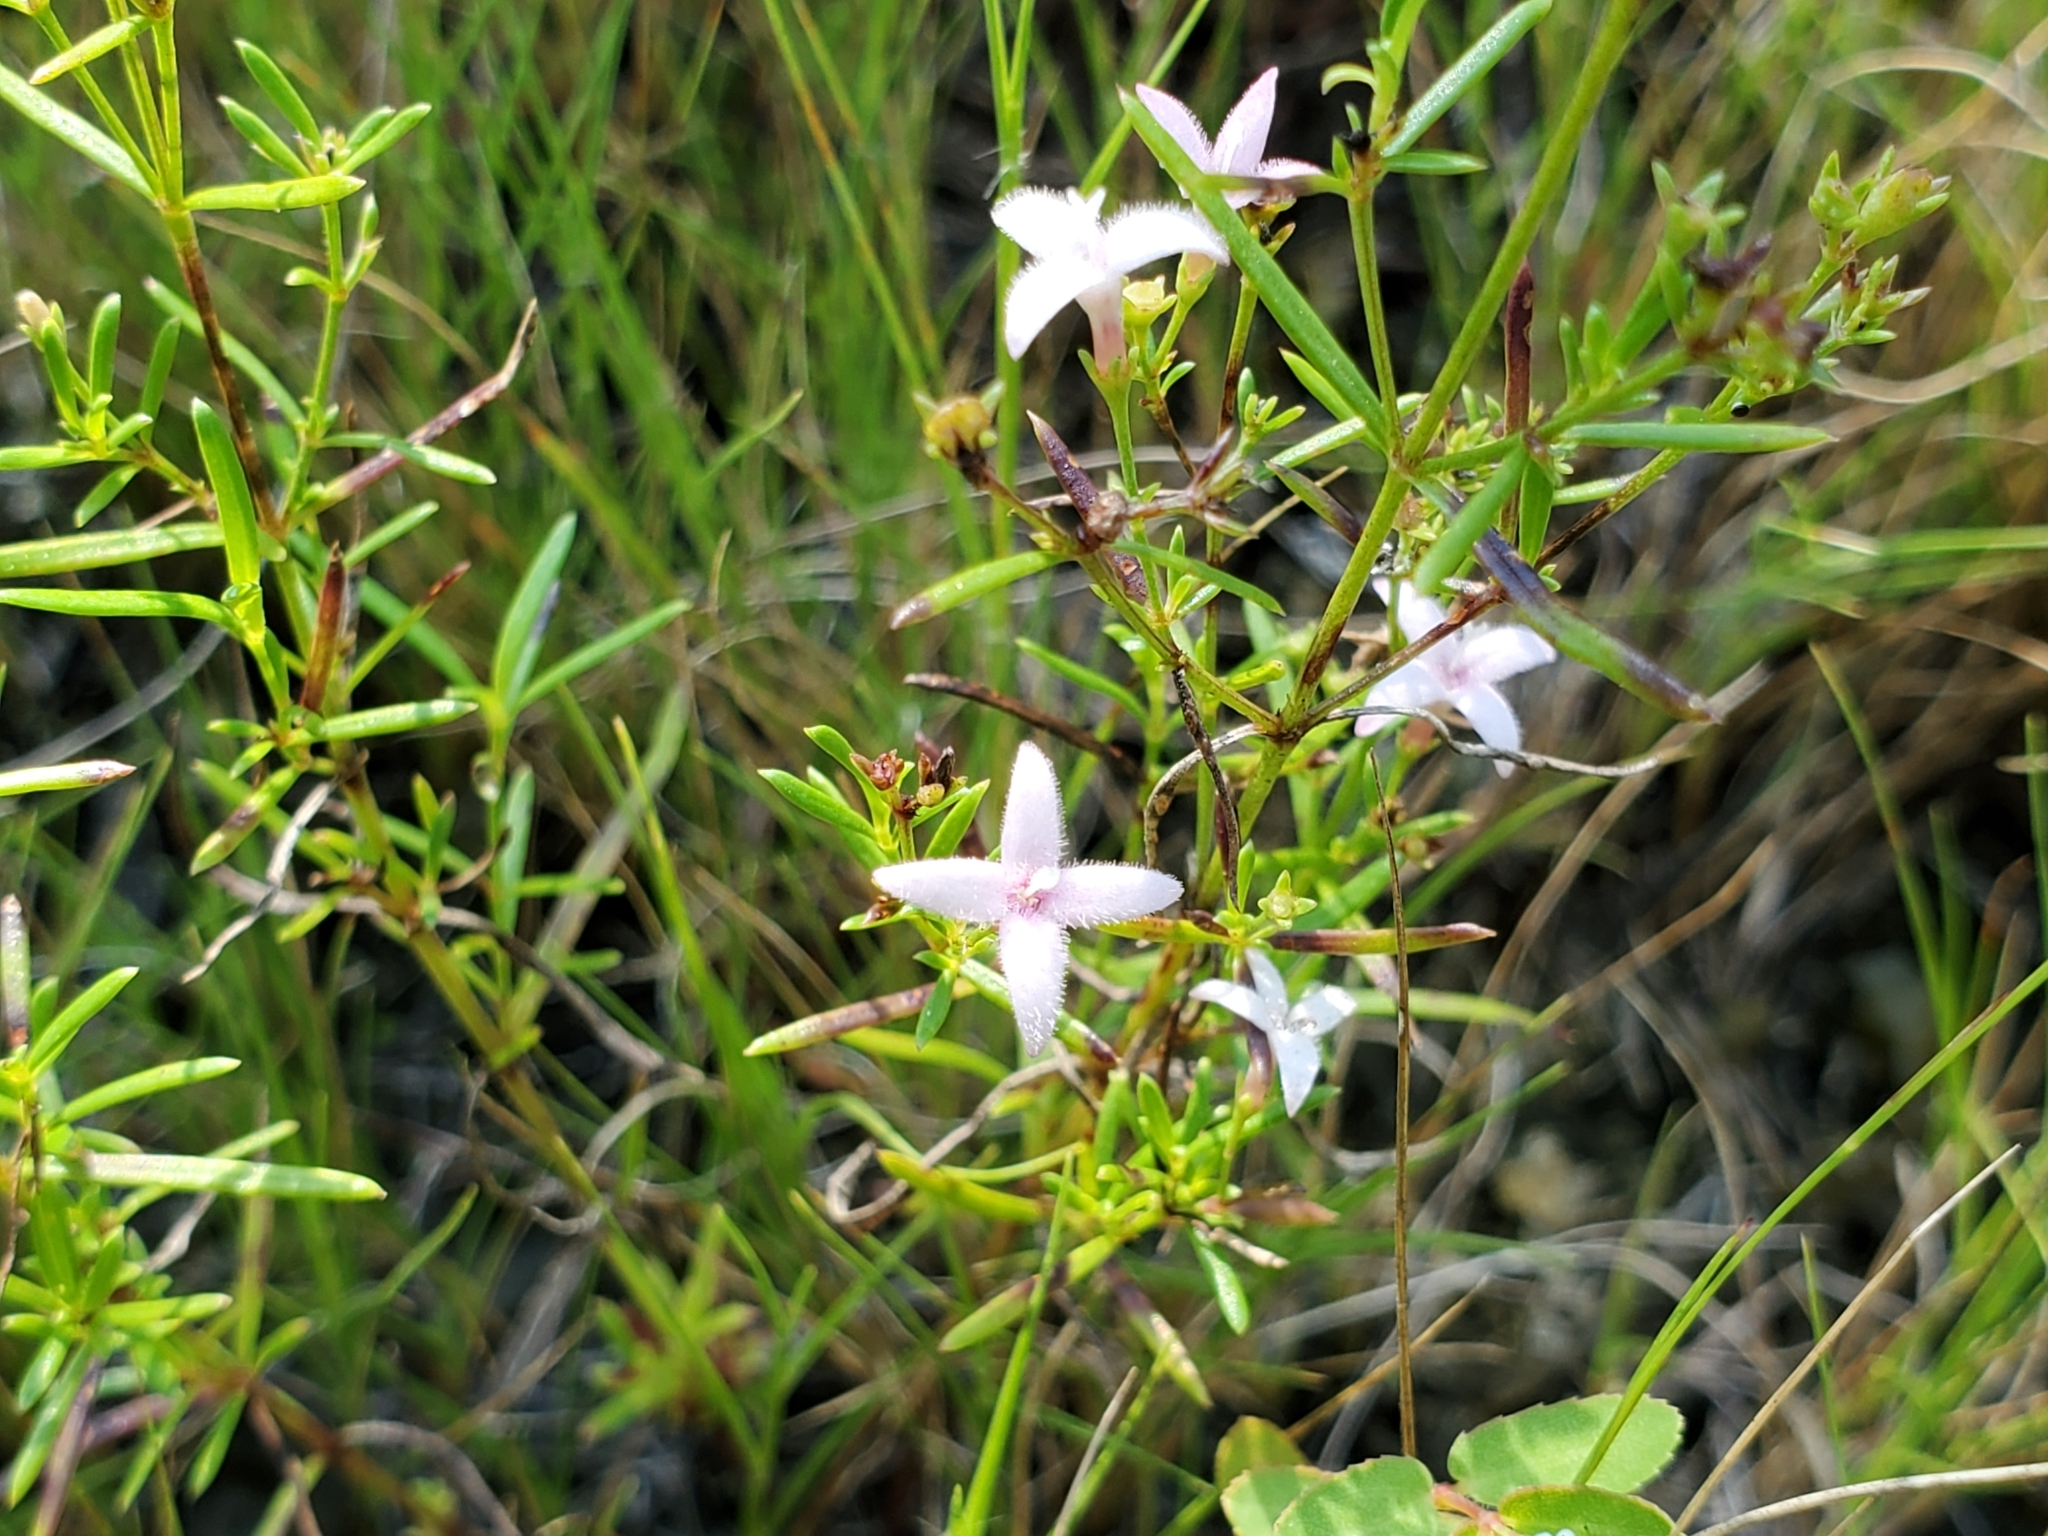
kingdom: Plantae
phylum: Tracheophyta
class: Magnoliopsida
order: Gentianales
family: Rubiaceae
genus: Stenaria
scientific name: Stenaria nigricans
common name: Diamondflowers
